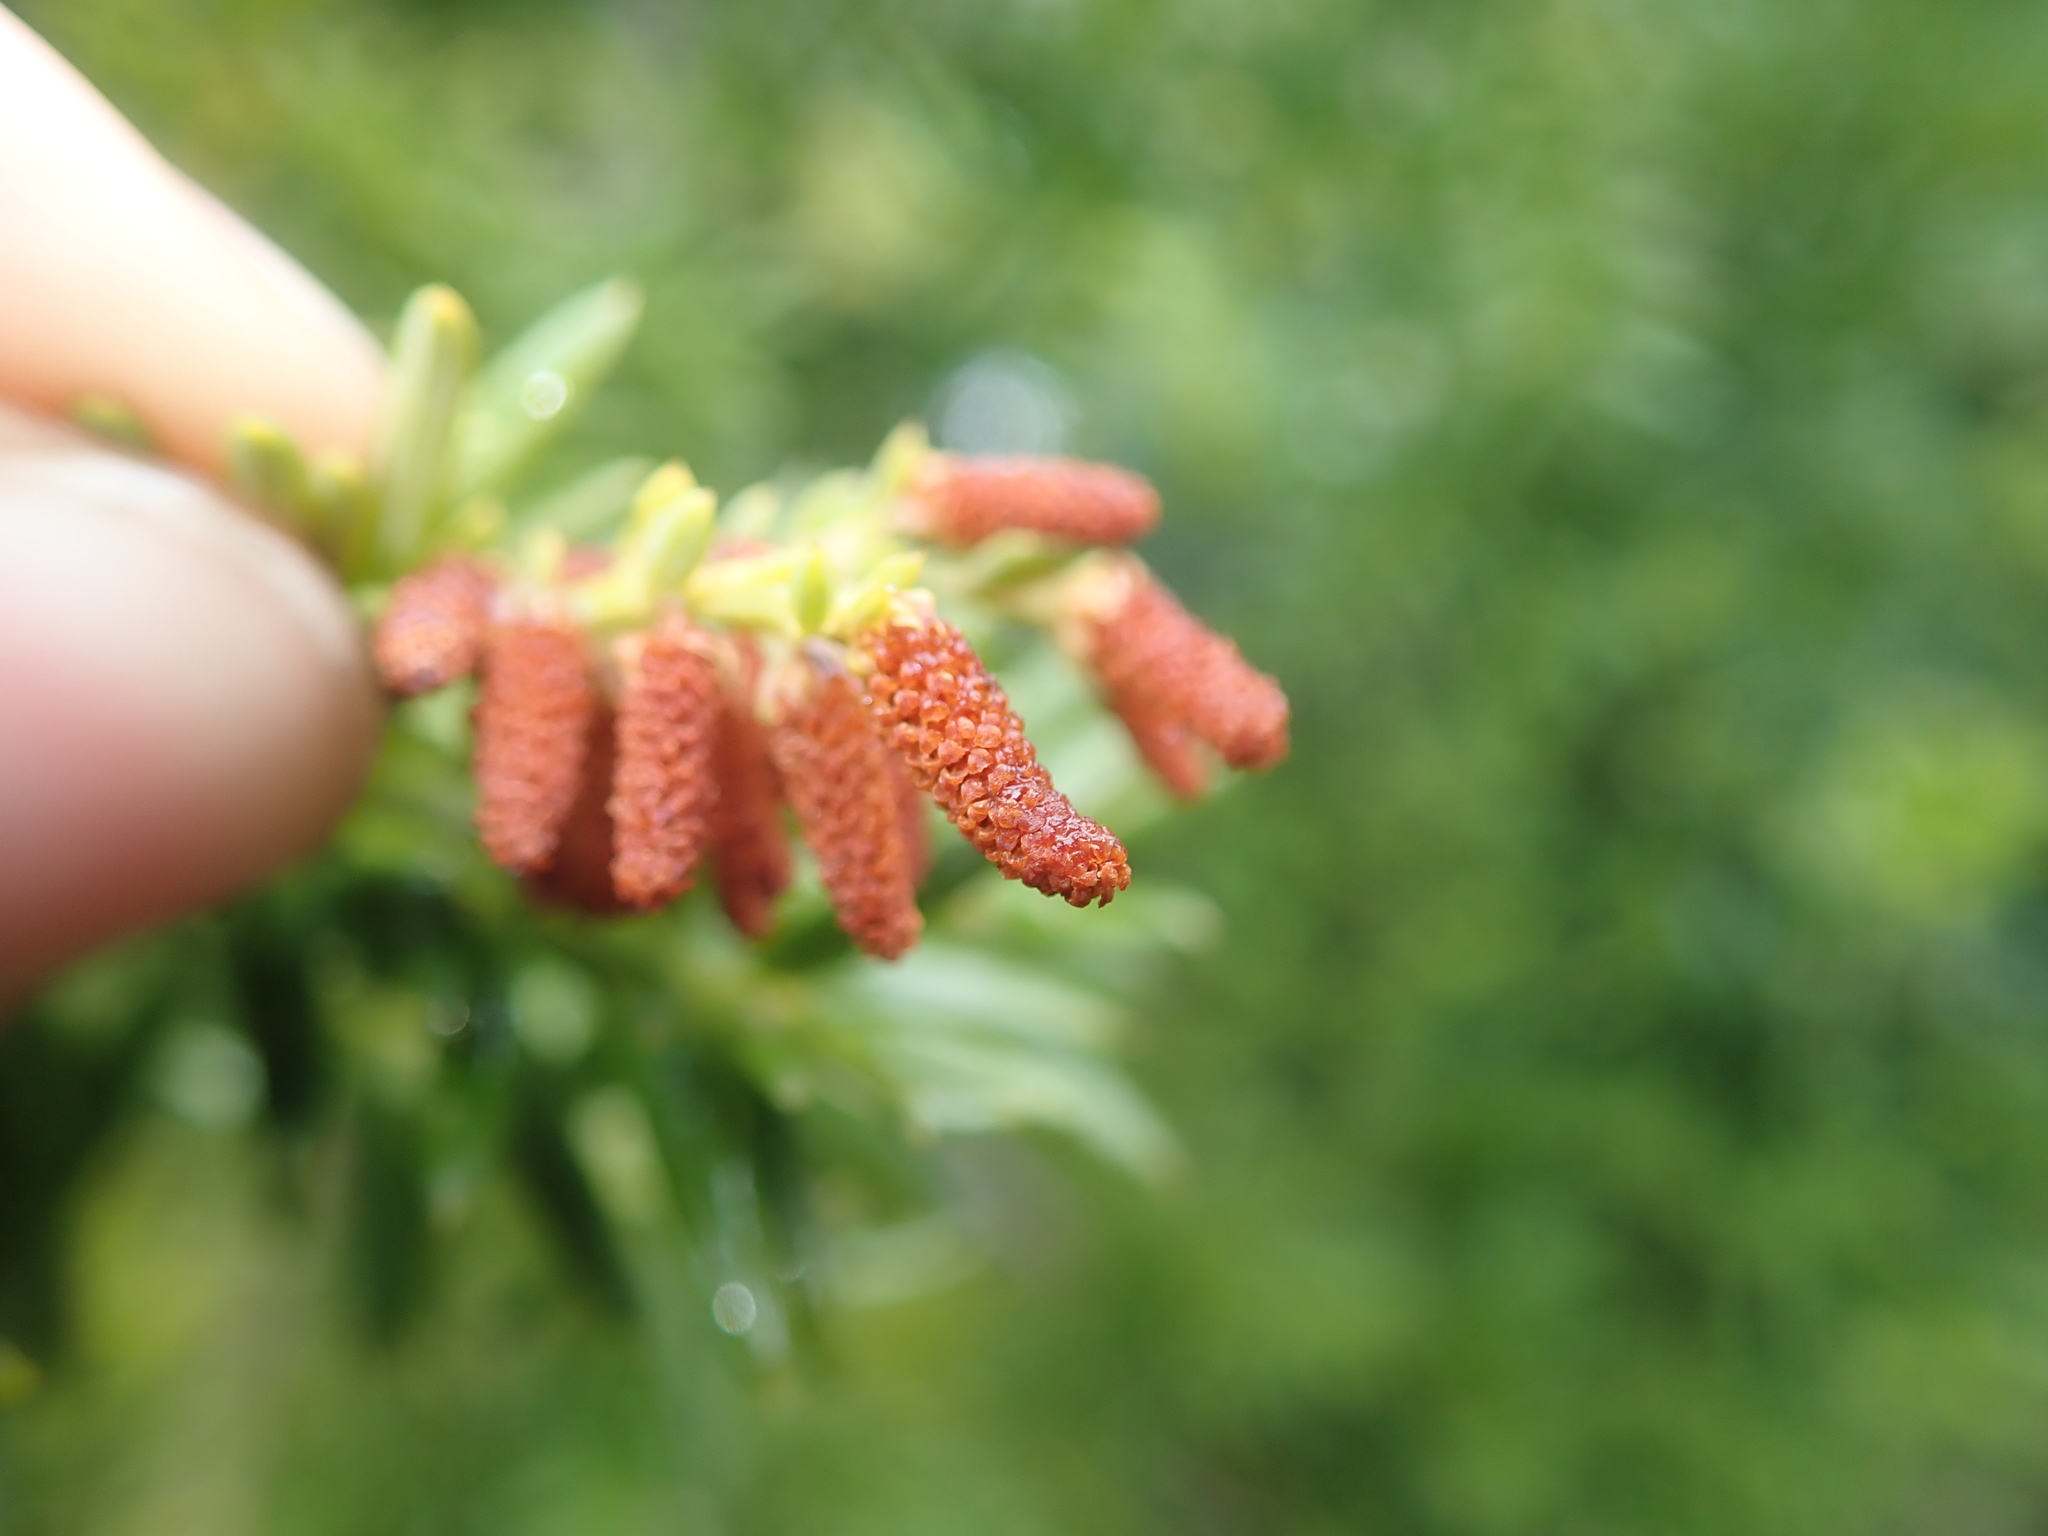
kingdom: Plantae
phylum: Tracheophyta
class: Pinopsida
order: Pinales
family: Podocarpaceae
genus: Saxegothaea
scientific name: Saxegothaea conspicua
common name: Prince albert's yew
